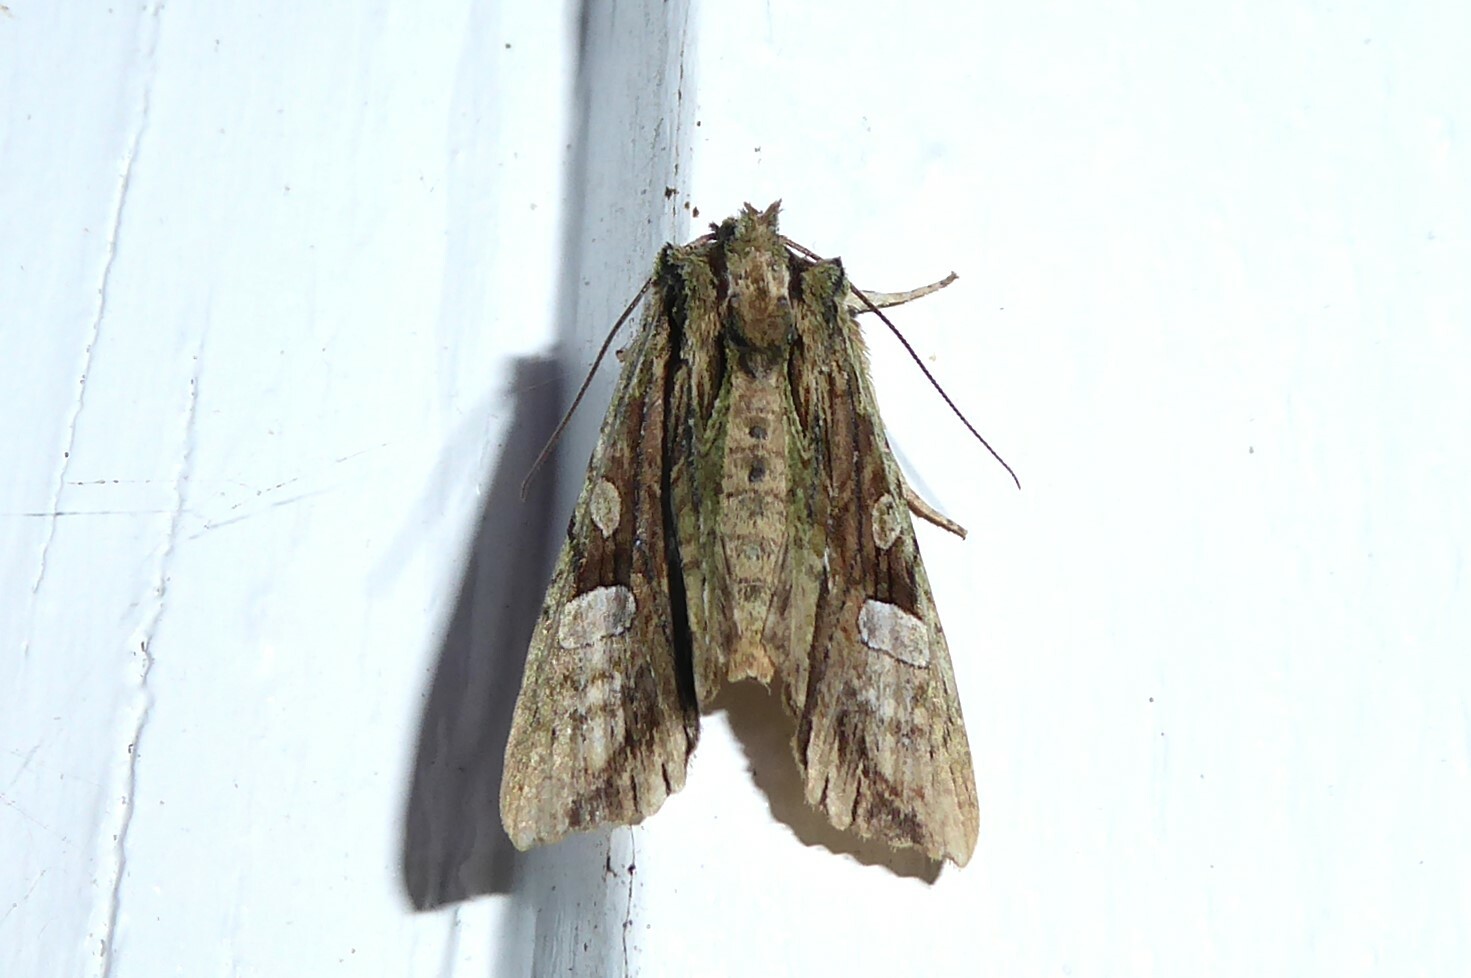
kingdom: Animalia
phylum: Arthropoda
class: Insecta
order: Lepidoptera
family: Noctuidae
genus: Meterana
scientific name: Meterana decorata
